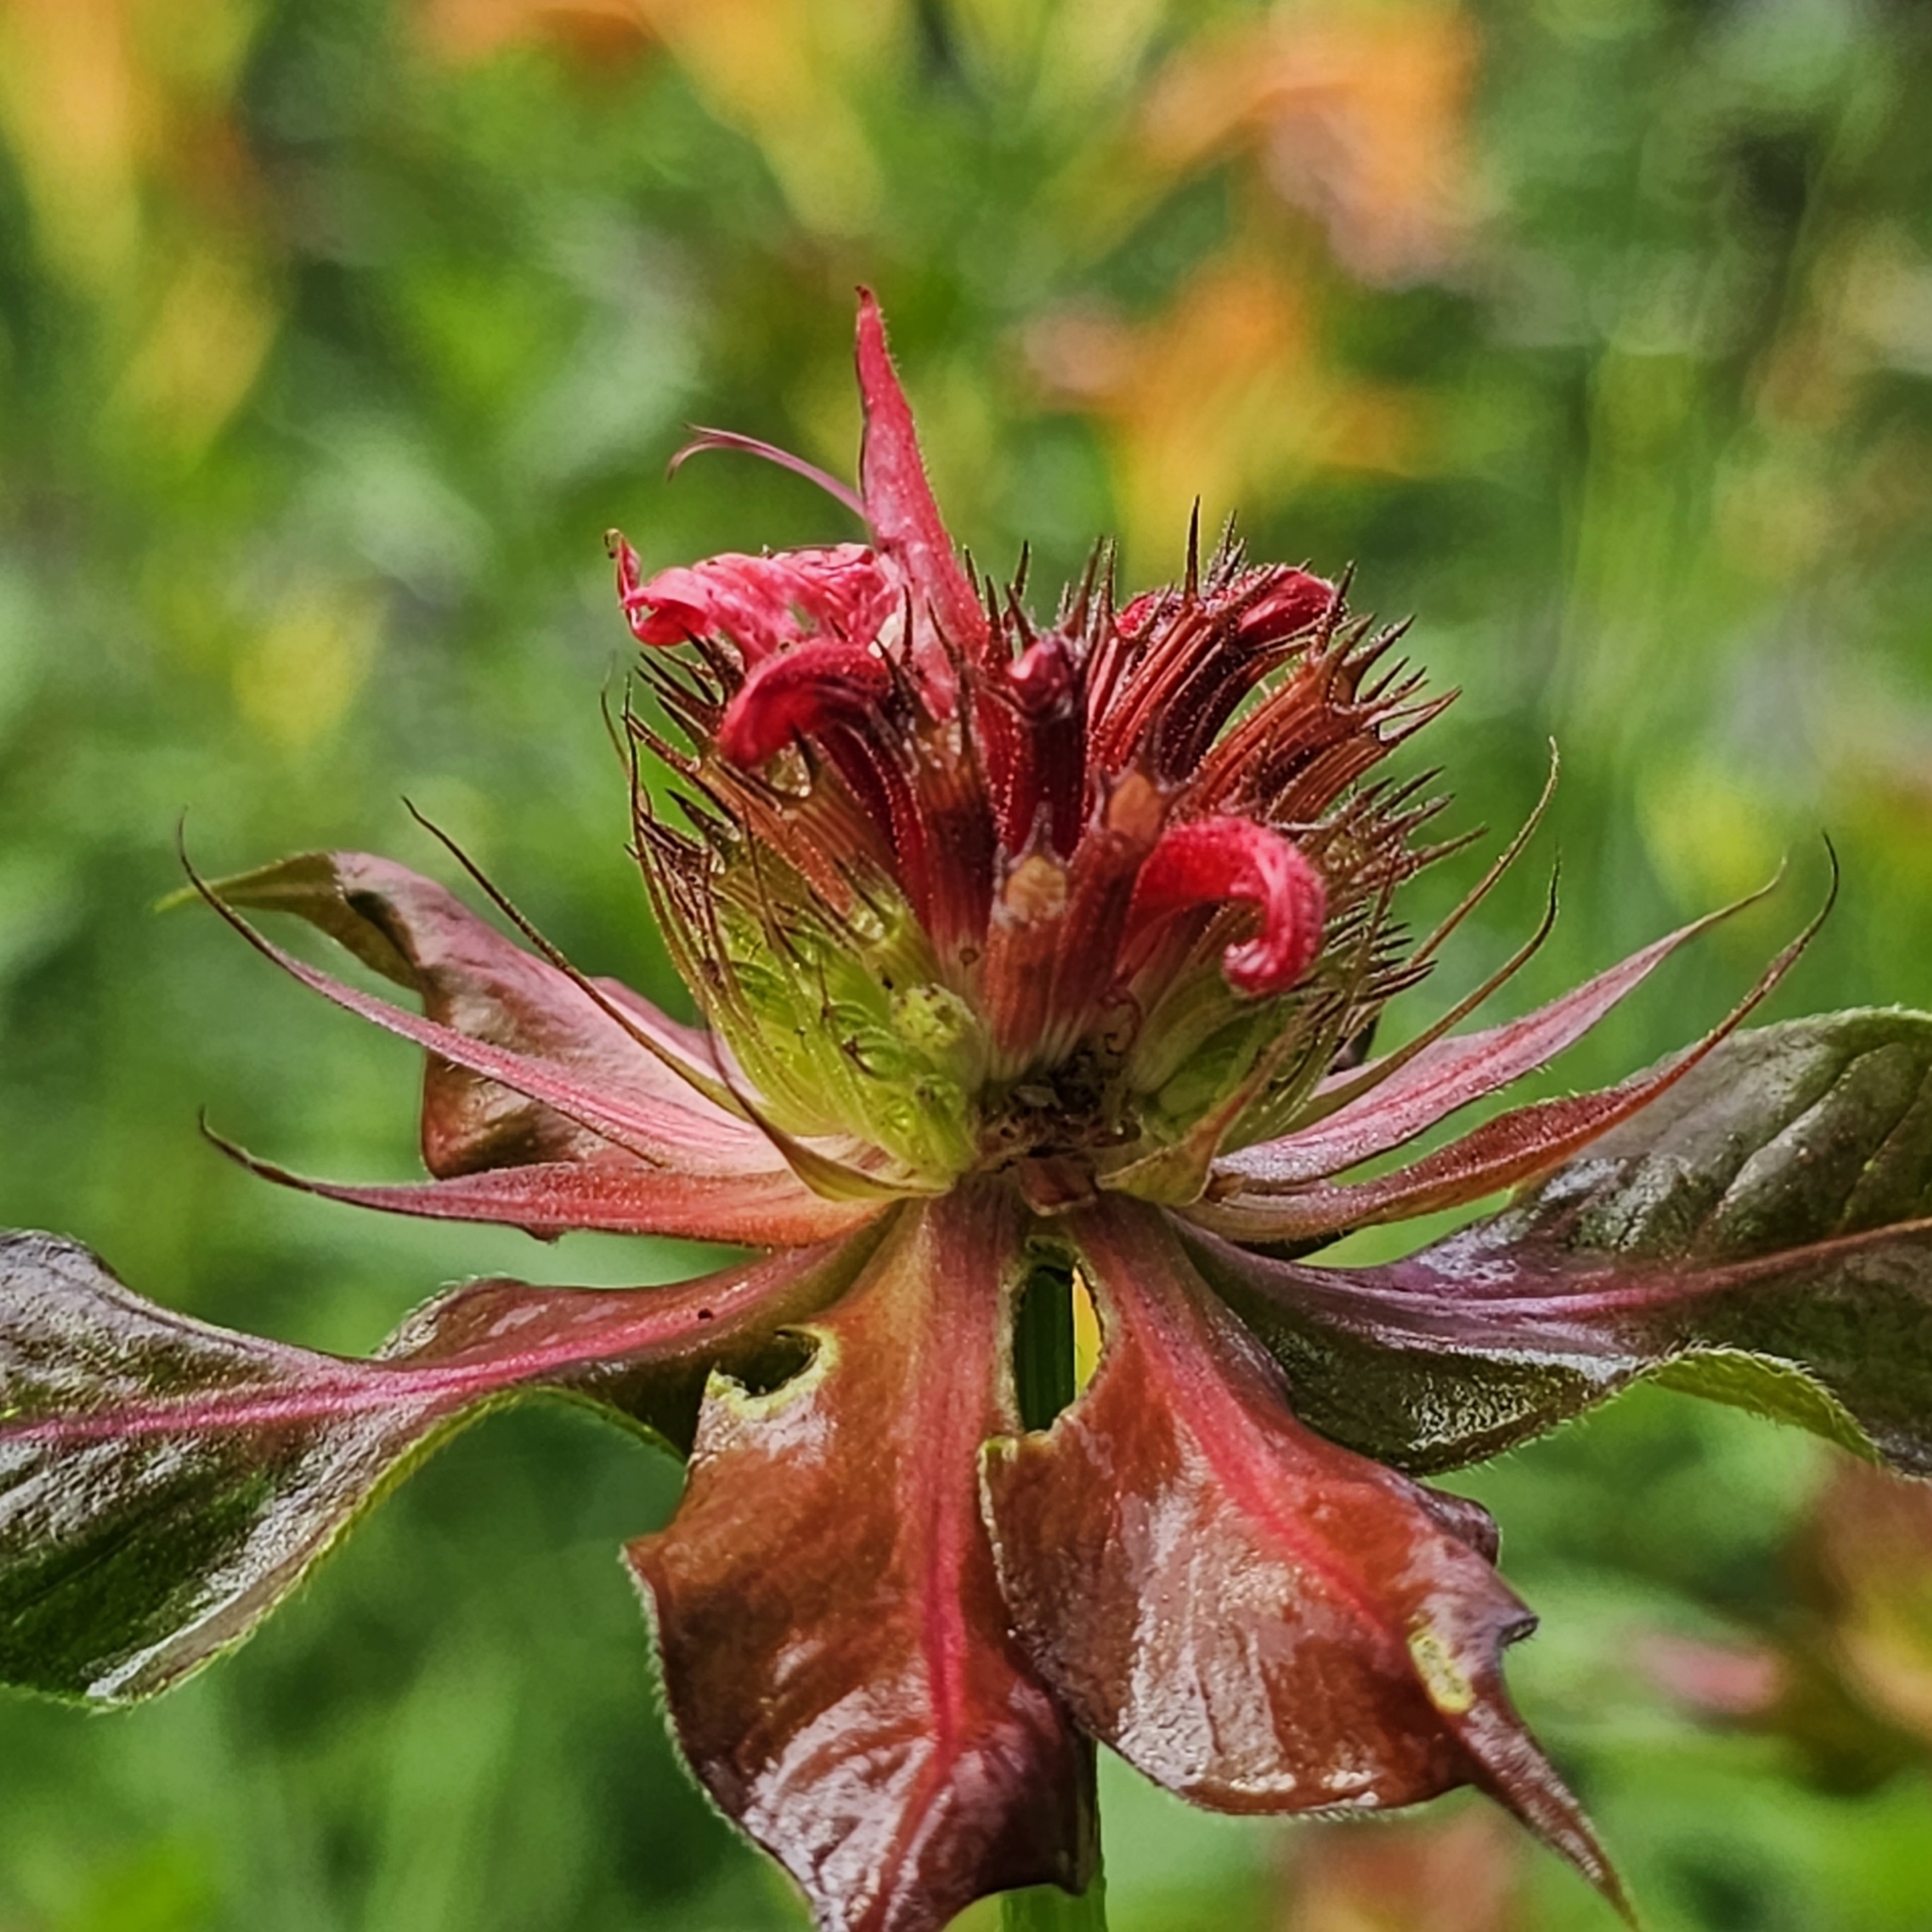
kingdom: Plantae
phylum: Tracheophyta
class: Magnoliopsida
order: Lamiales
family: Lamiaceae
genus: Monarda
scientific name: Monarda didyma
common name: Beebalm
